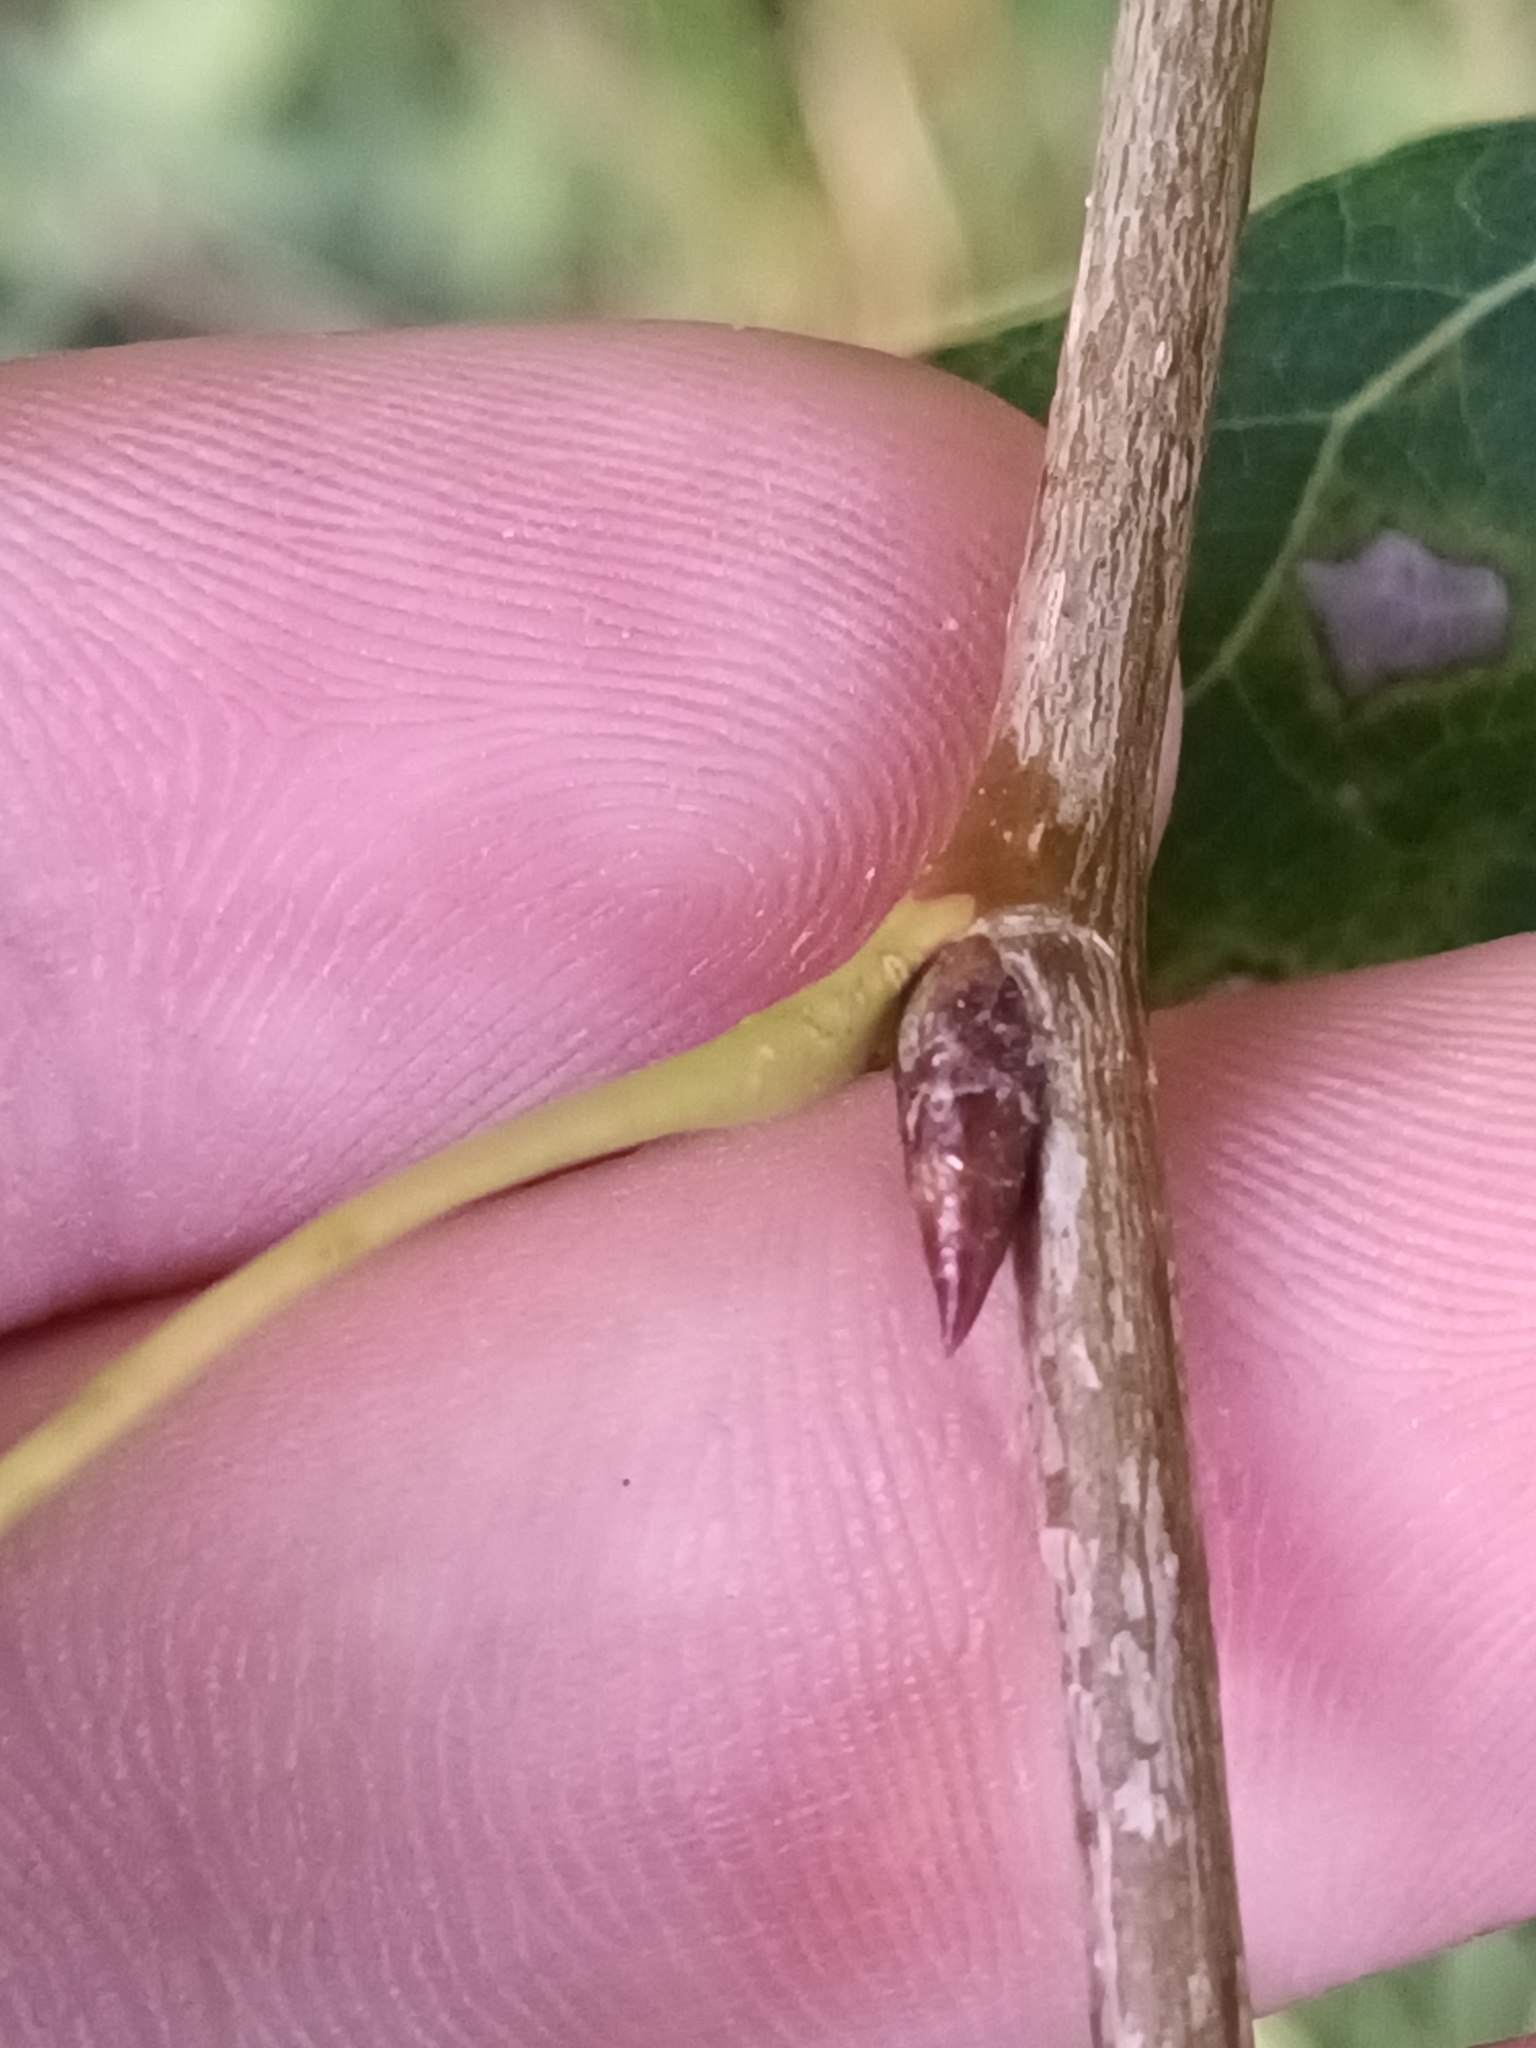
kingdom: Plantae
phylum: Tracheophyta
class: Magnoliopsida
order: Malpighiales
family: Salicaceae
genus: Populus
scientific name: Populus tremula
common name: European aspen
